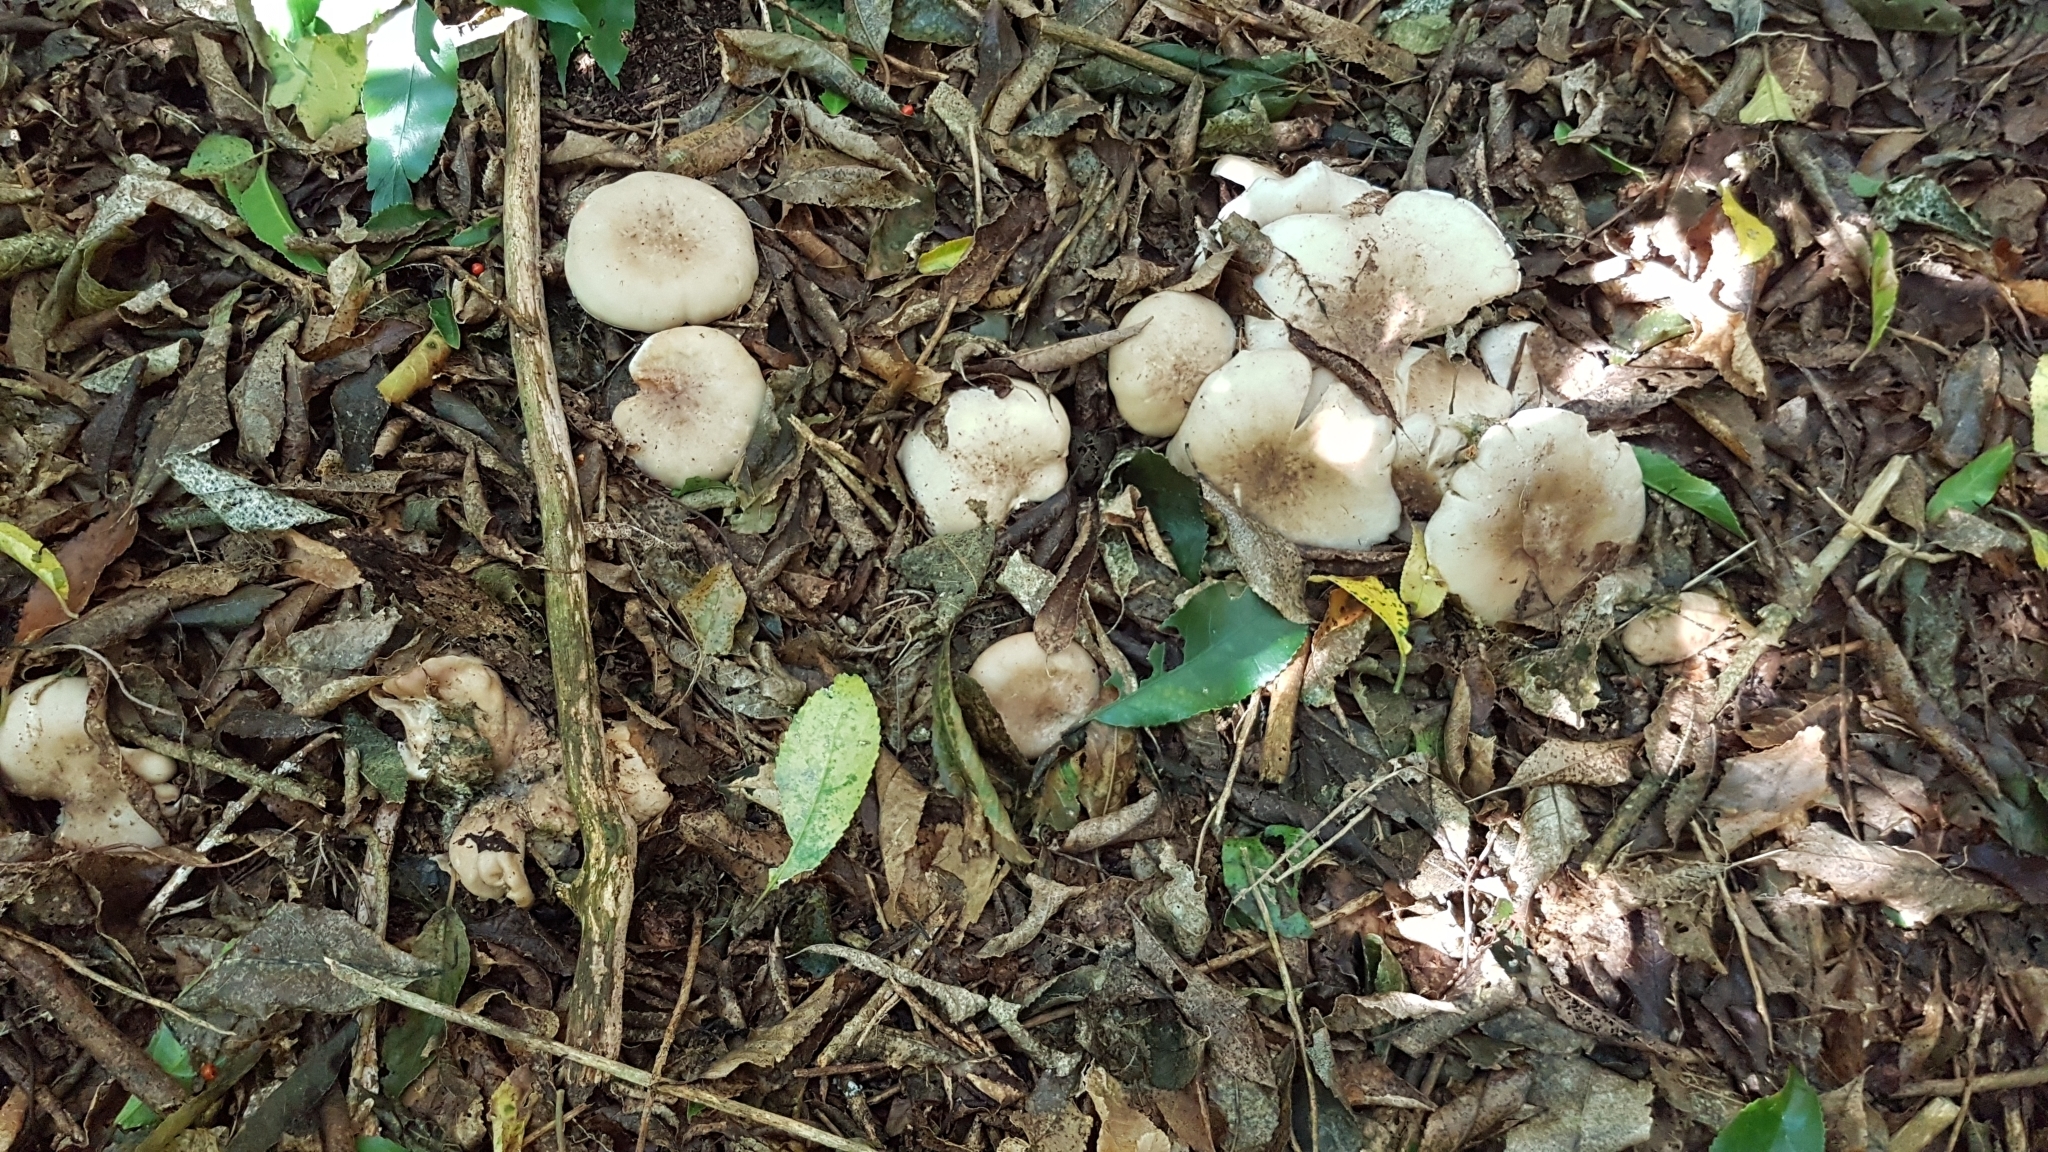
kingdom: Fungi
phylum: Basidiomycota
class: Agaricomycetes
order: Agaricales
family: Tricholomataceae
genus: Clitocybe
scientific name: Clitocybe nebularis
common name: Clouded agaric
